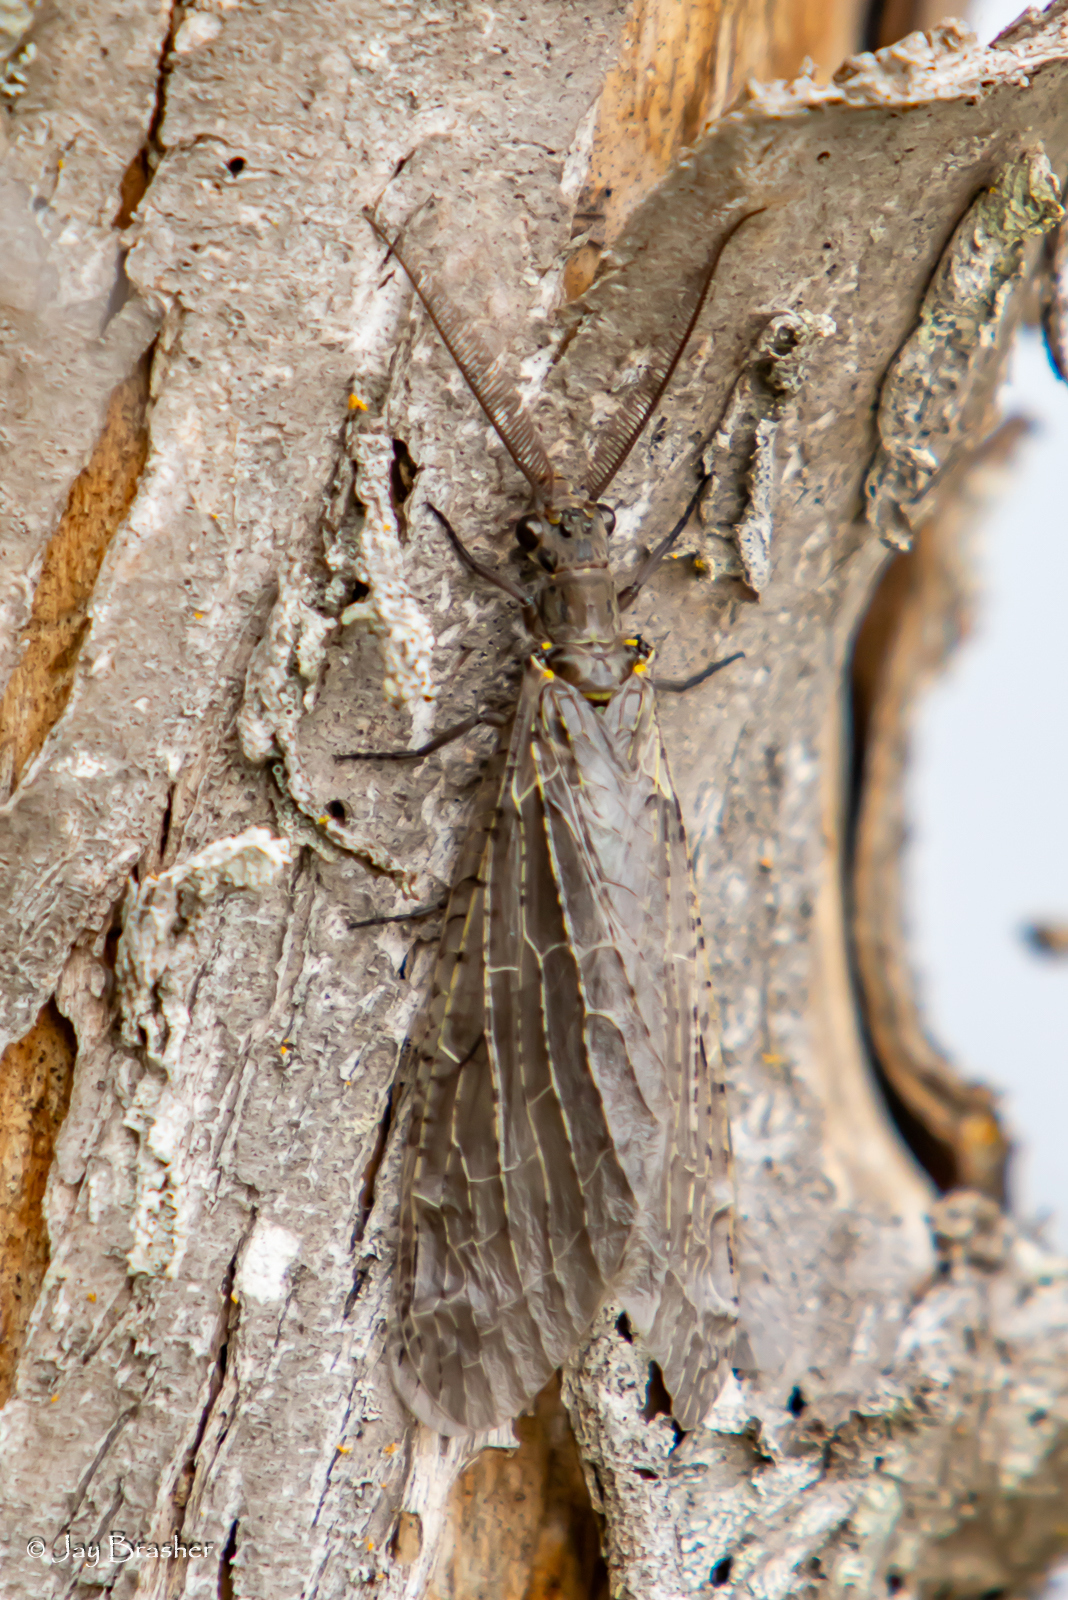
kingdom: Animalia
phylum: Arthropoda
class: Insecta
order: Megaloptera
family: Corydalidae
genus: Chauliodes
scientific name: Chauliodes rastricornis
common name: Spring fishfly
